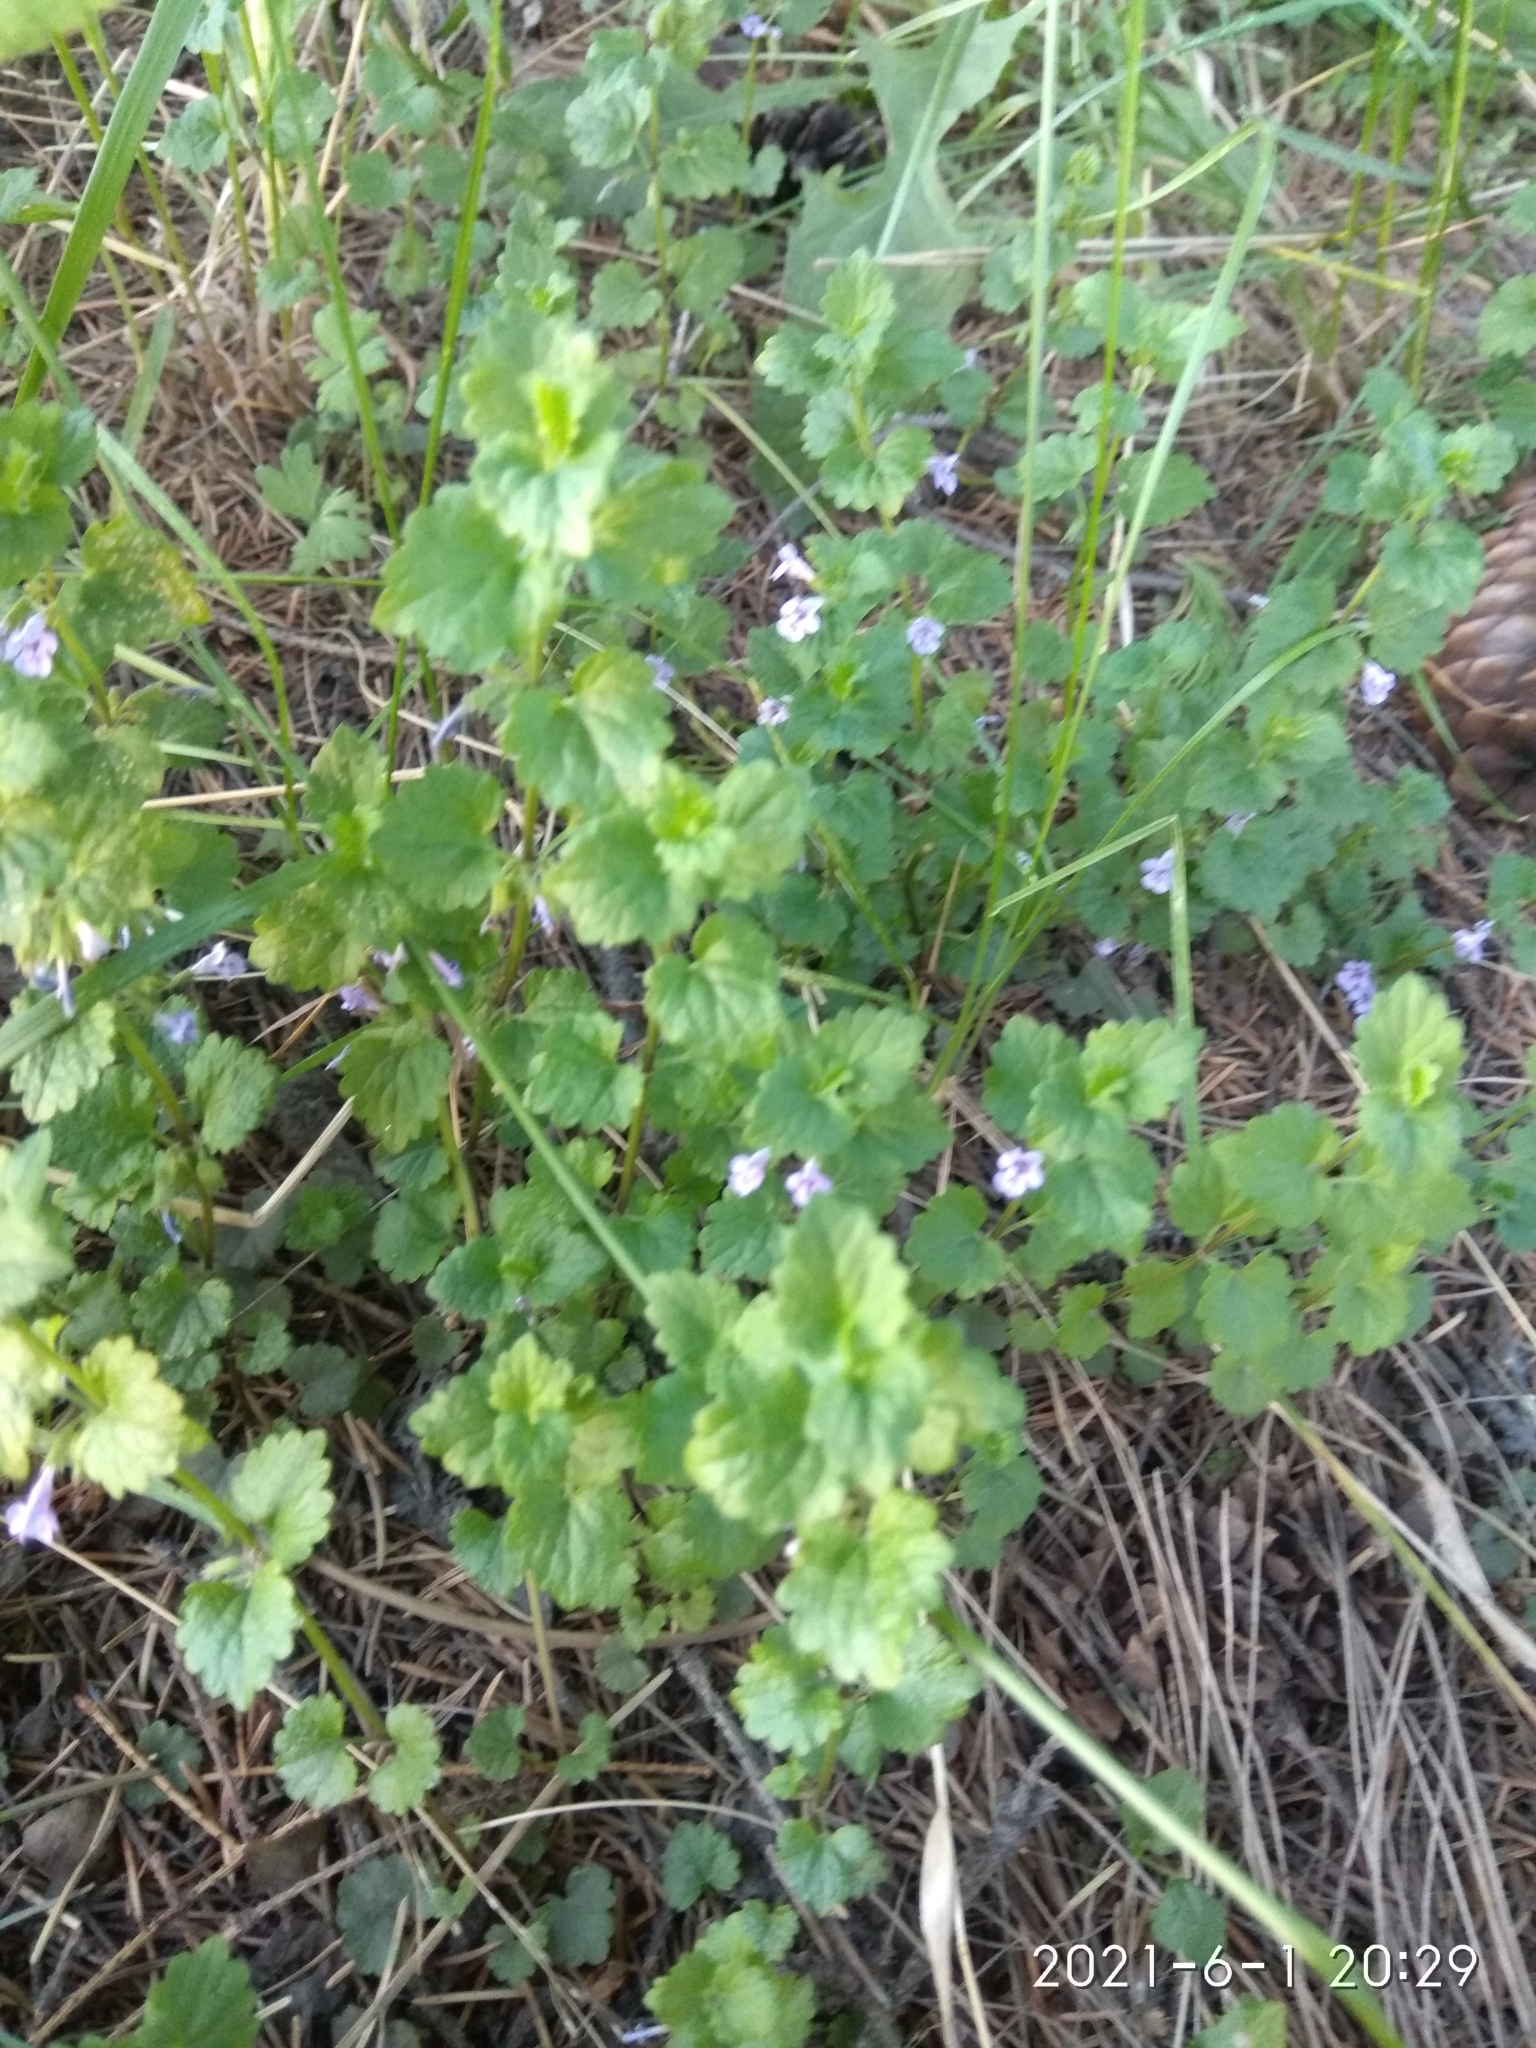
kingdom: Plantae
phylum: Tracheophyta
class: Magnoliopsida
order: Lamiales
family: Lamiaceae
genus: Glechoma
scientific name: Glechoma hederacea
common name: Ground ivy
